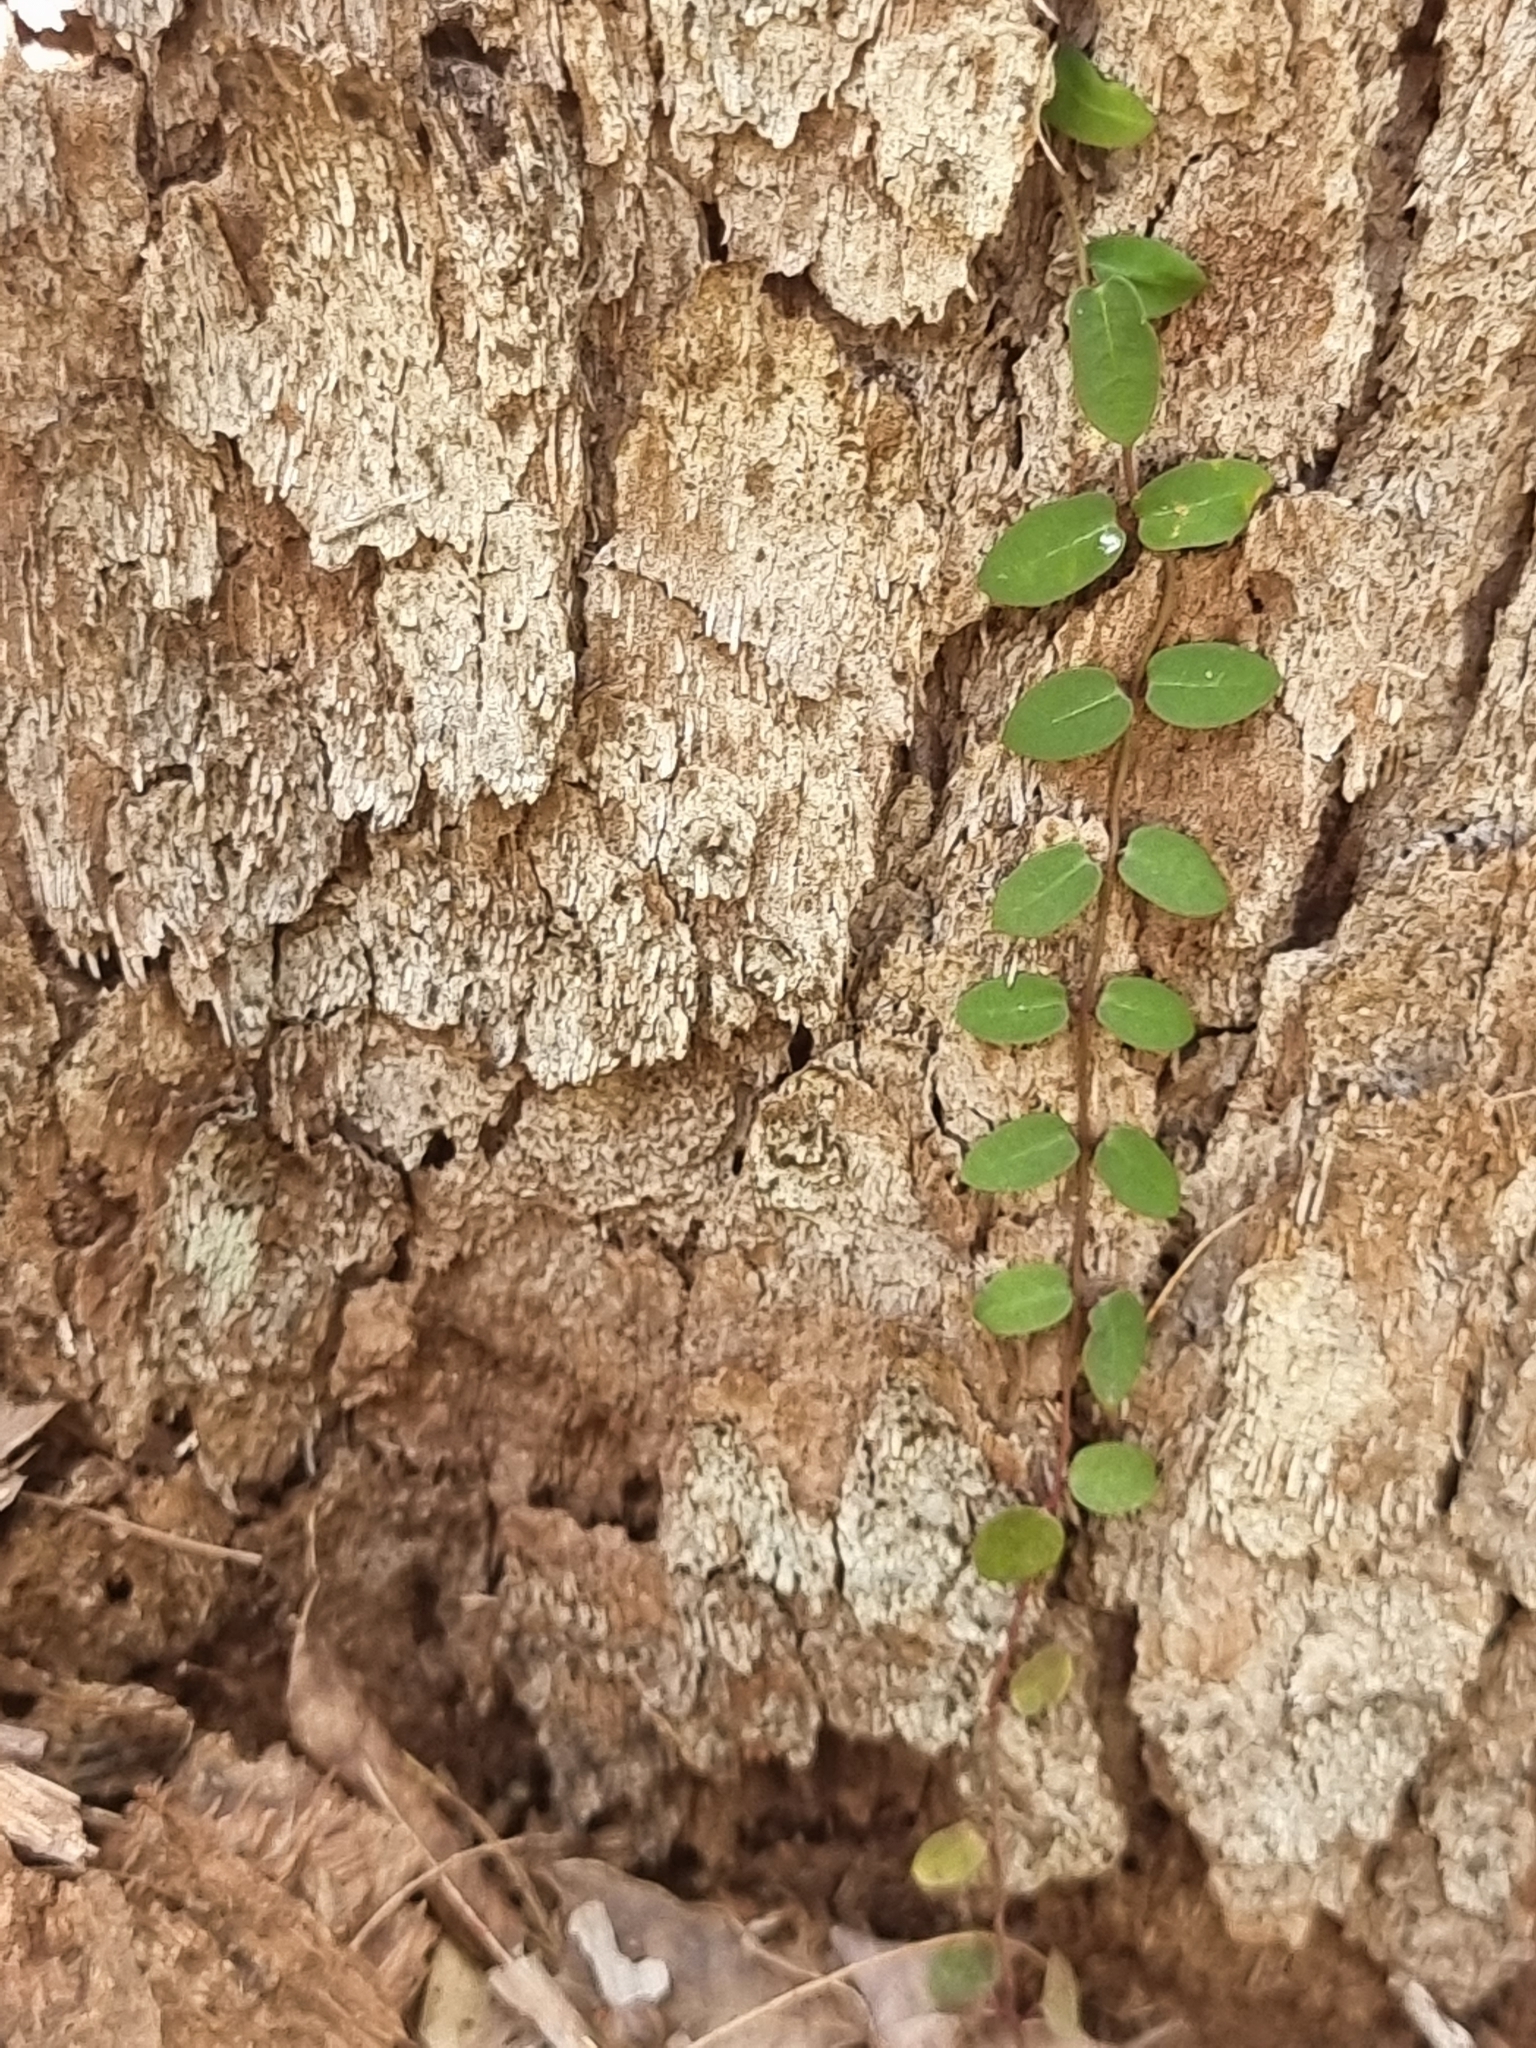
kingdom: Plantae
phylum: Tracheophyta
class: Magnoliopsida
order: Gentianales
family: Apocynaceae
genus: Parsonsia
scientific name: Parsonsia straminea
